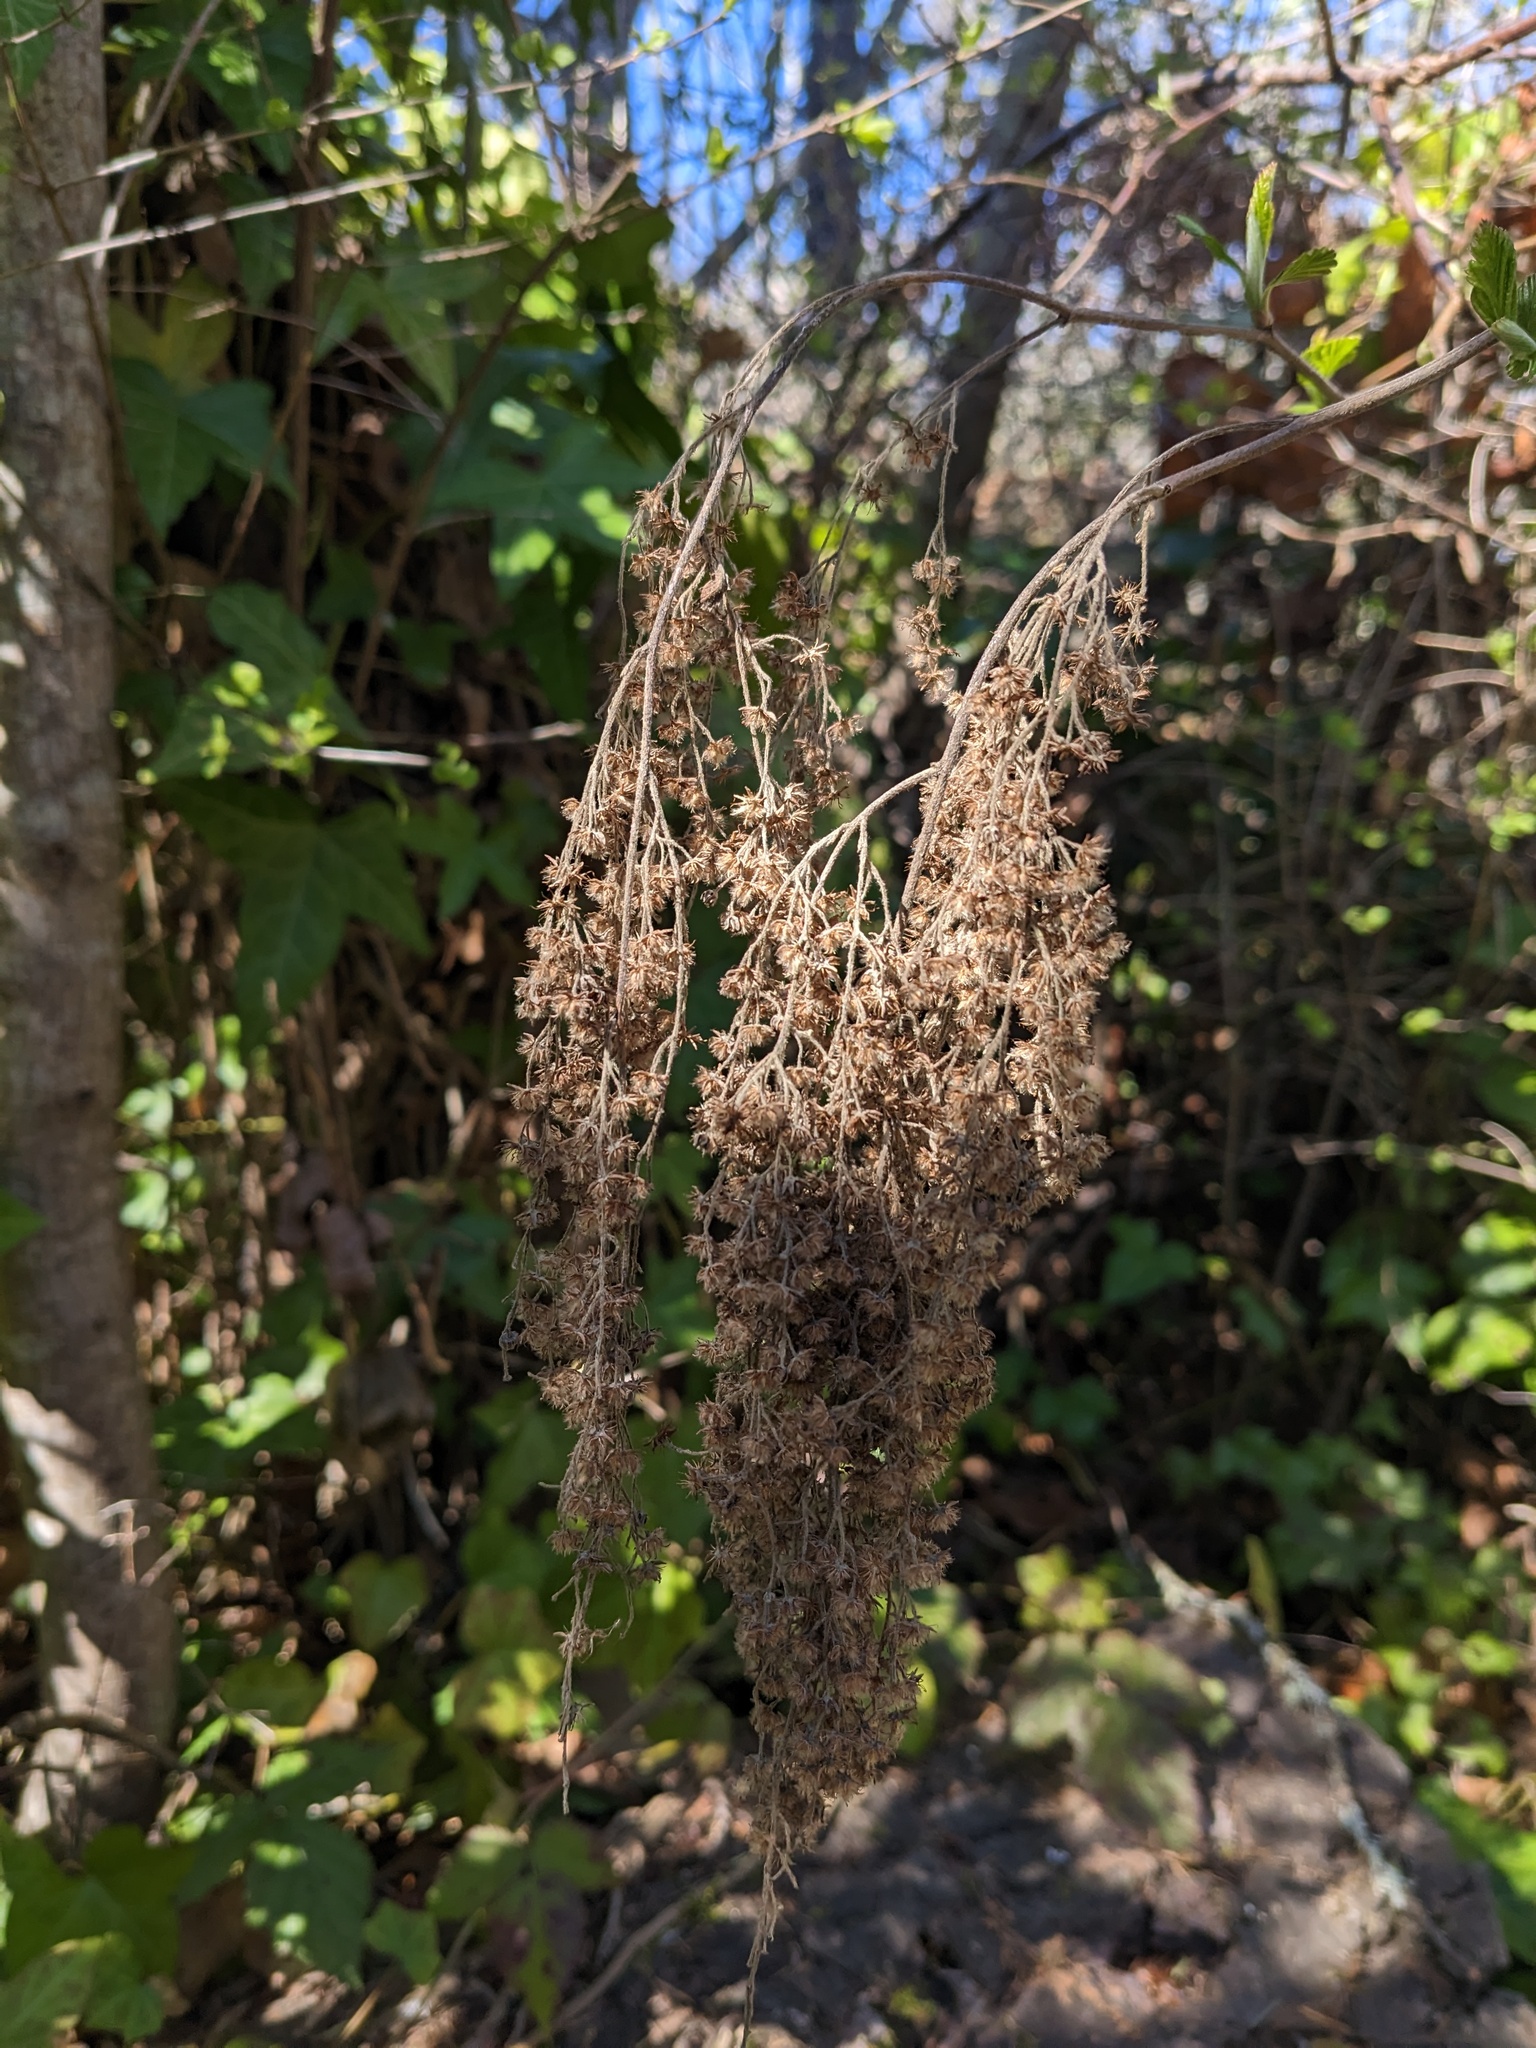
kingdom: Plantae
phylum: Tracheophyta
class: Magnoliopsida
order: Rosales
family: Rosaceae
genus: Holodiscus
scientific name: Holodiscus discolor
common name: Oceanspray
